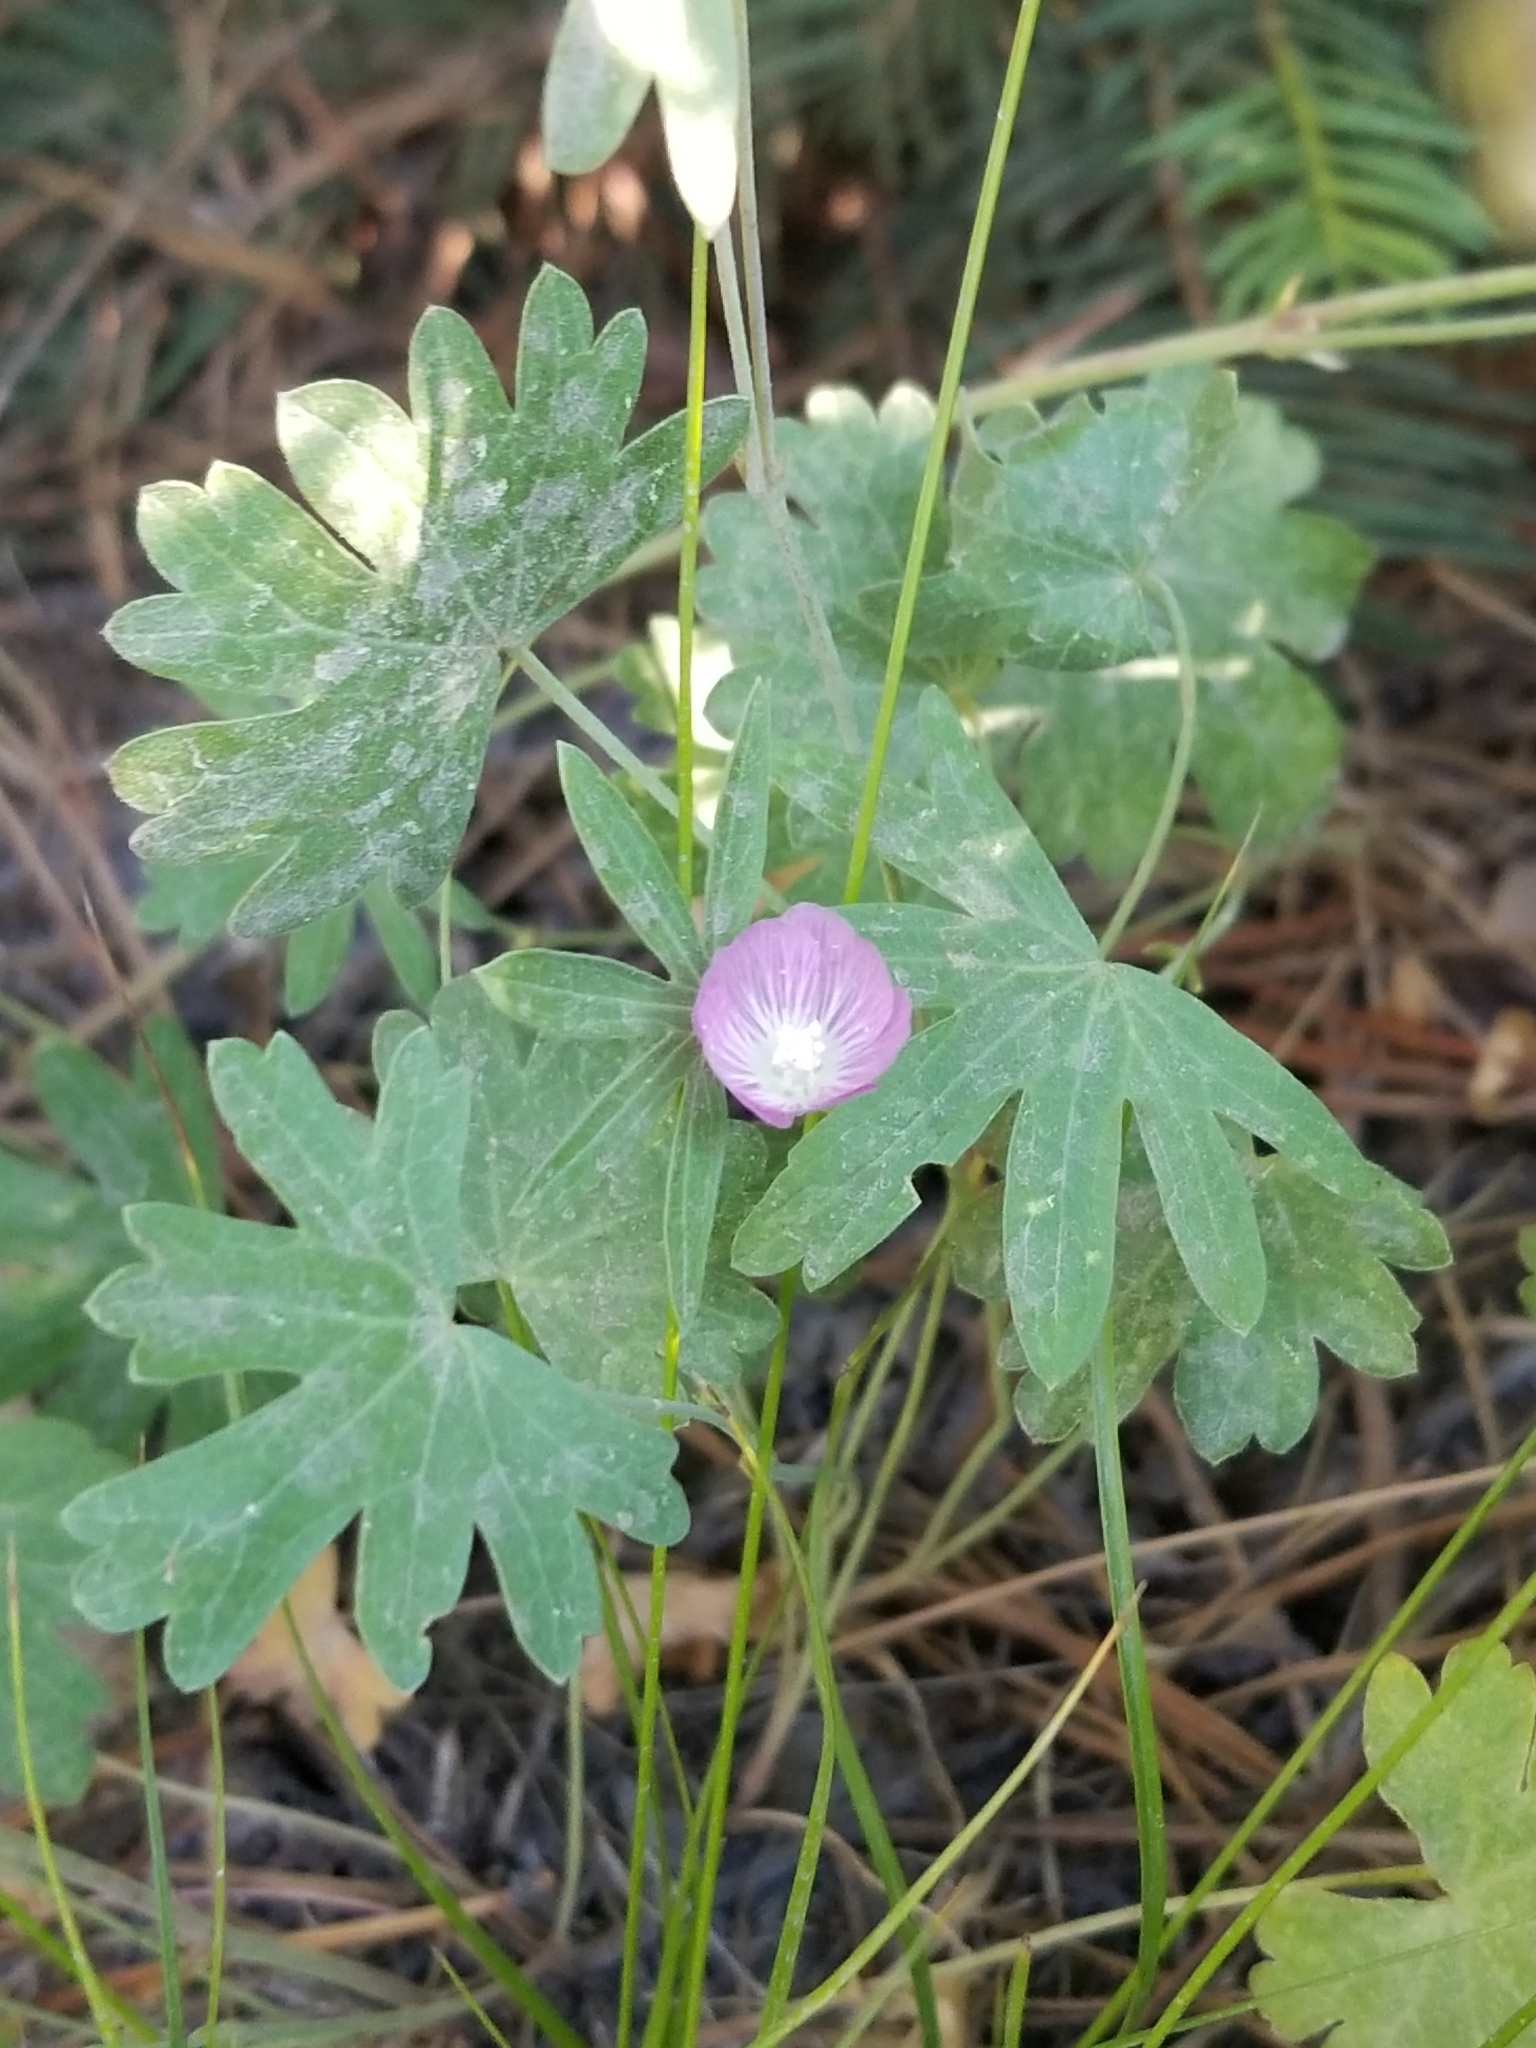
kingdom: Plantae
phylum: Tracheophyta
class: Magnoliopsida
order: Malvales
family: Malvaceae
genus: Sidalcea
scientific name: Sidalcea glaucescens
